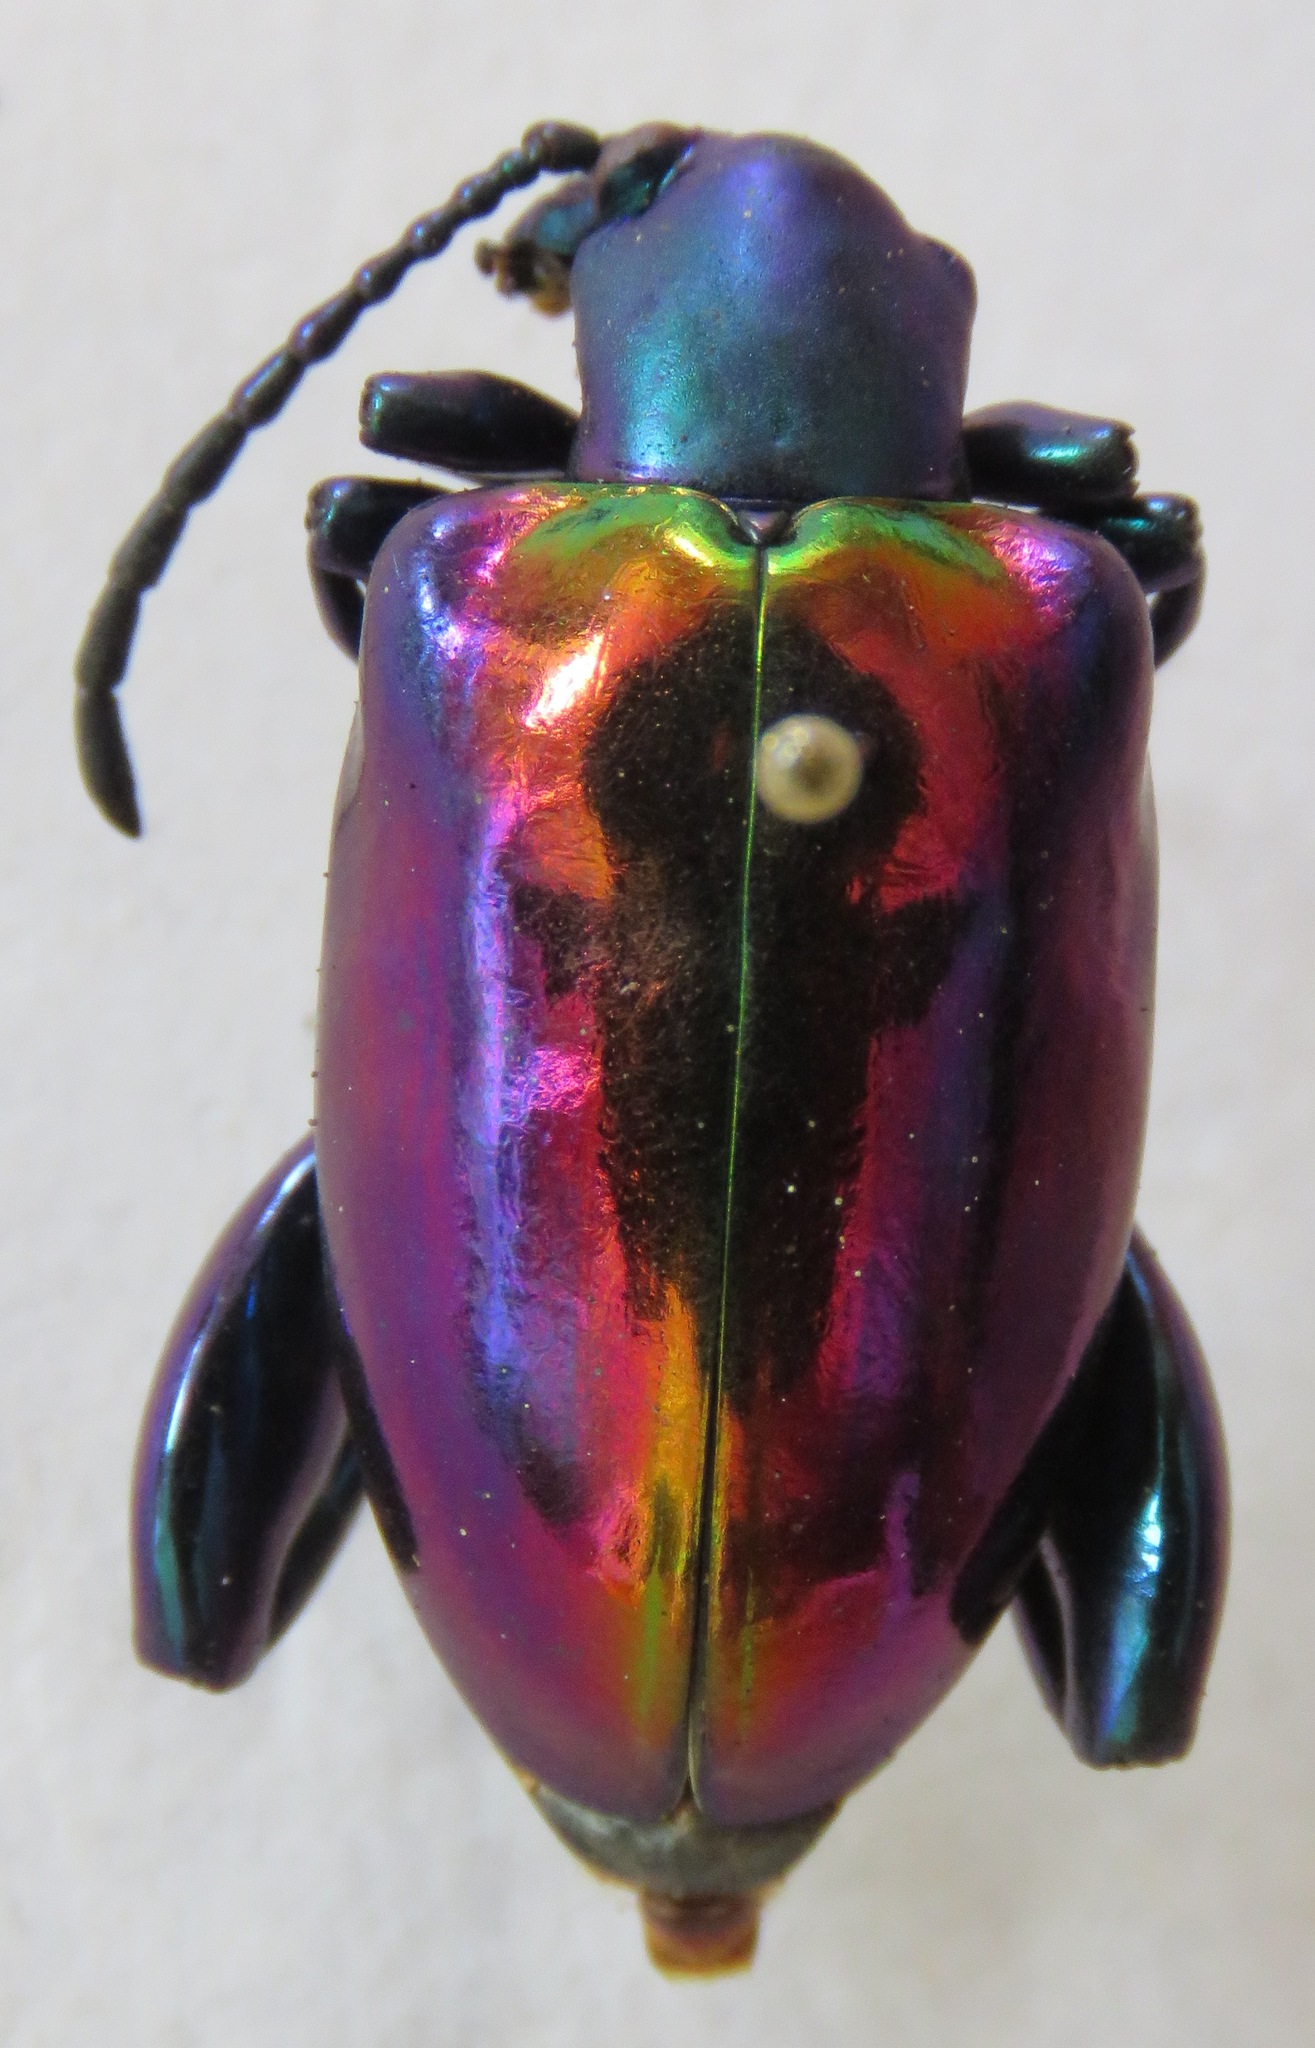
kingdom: Animalia
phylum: Arthropoda
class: Insecta
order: Coleoptera
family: Chrysomelidae
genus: Sagra
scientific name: Sagra buquetii
